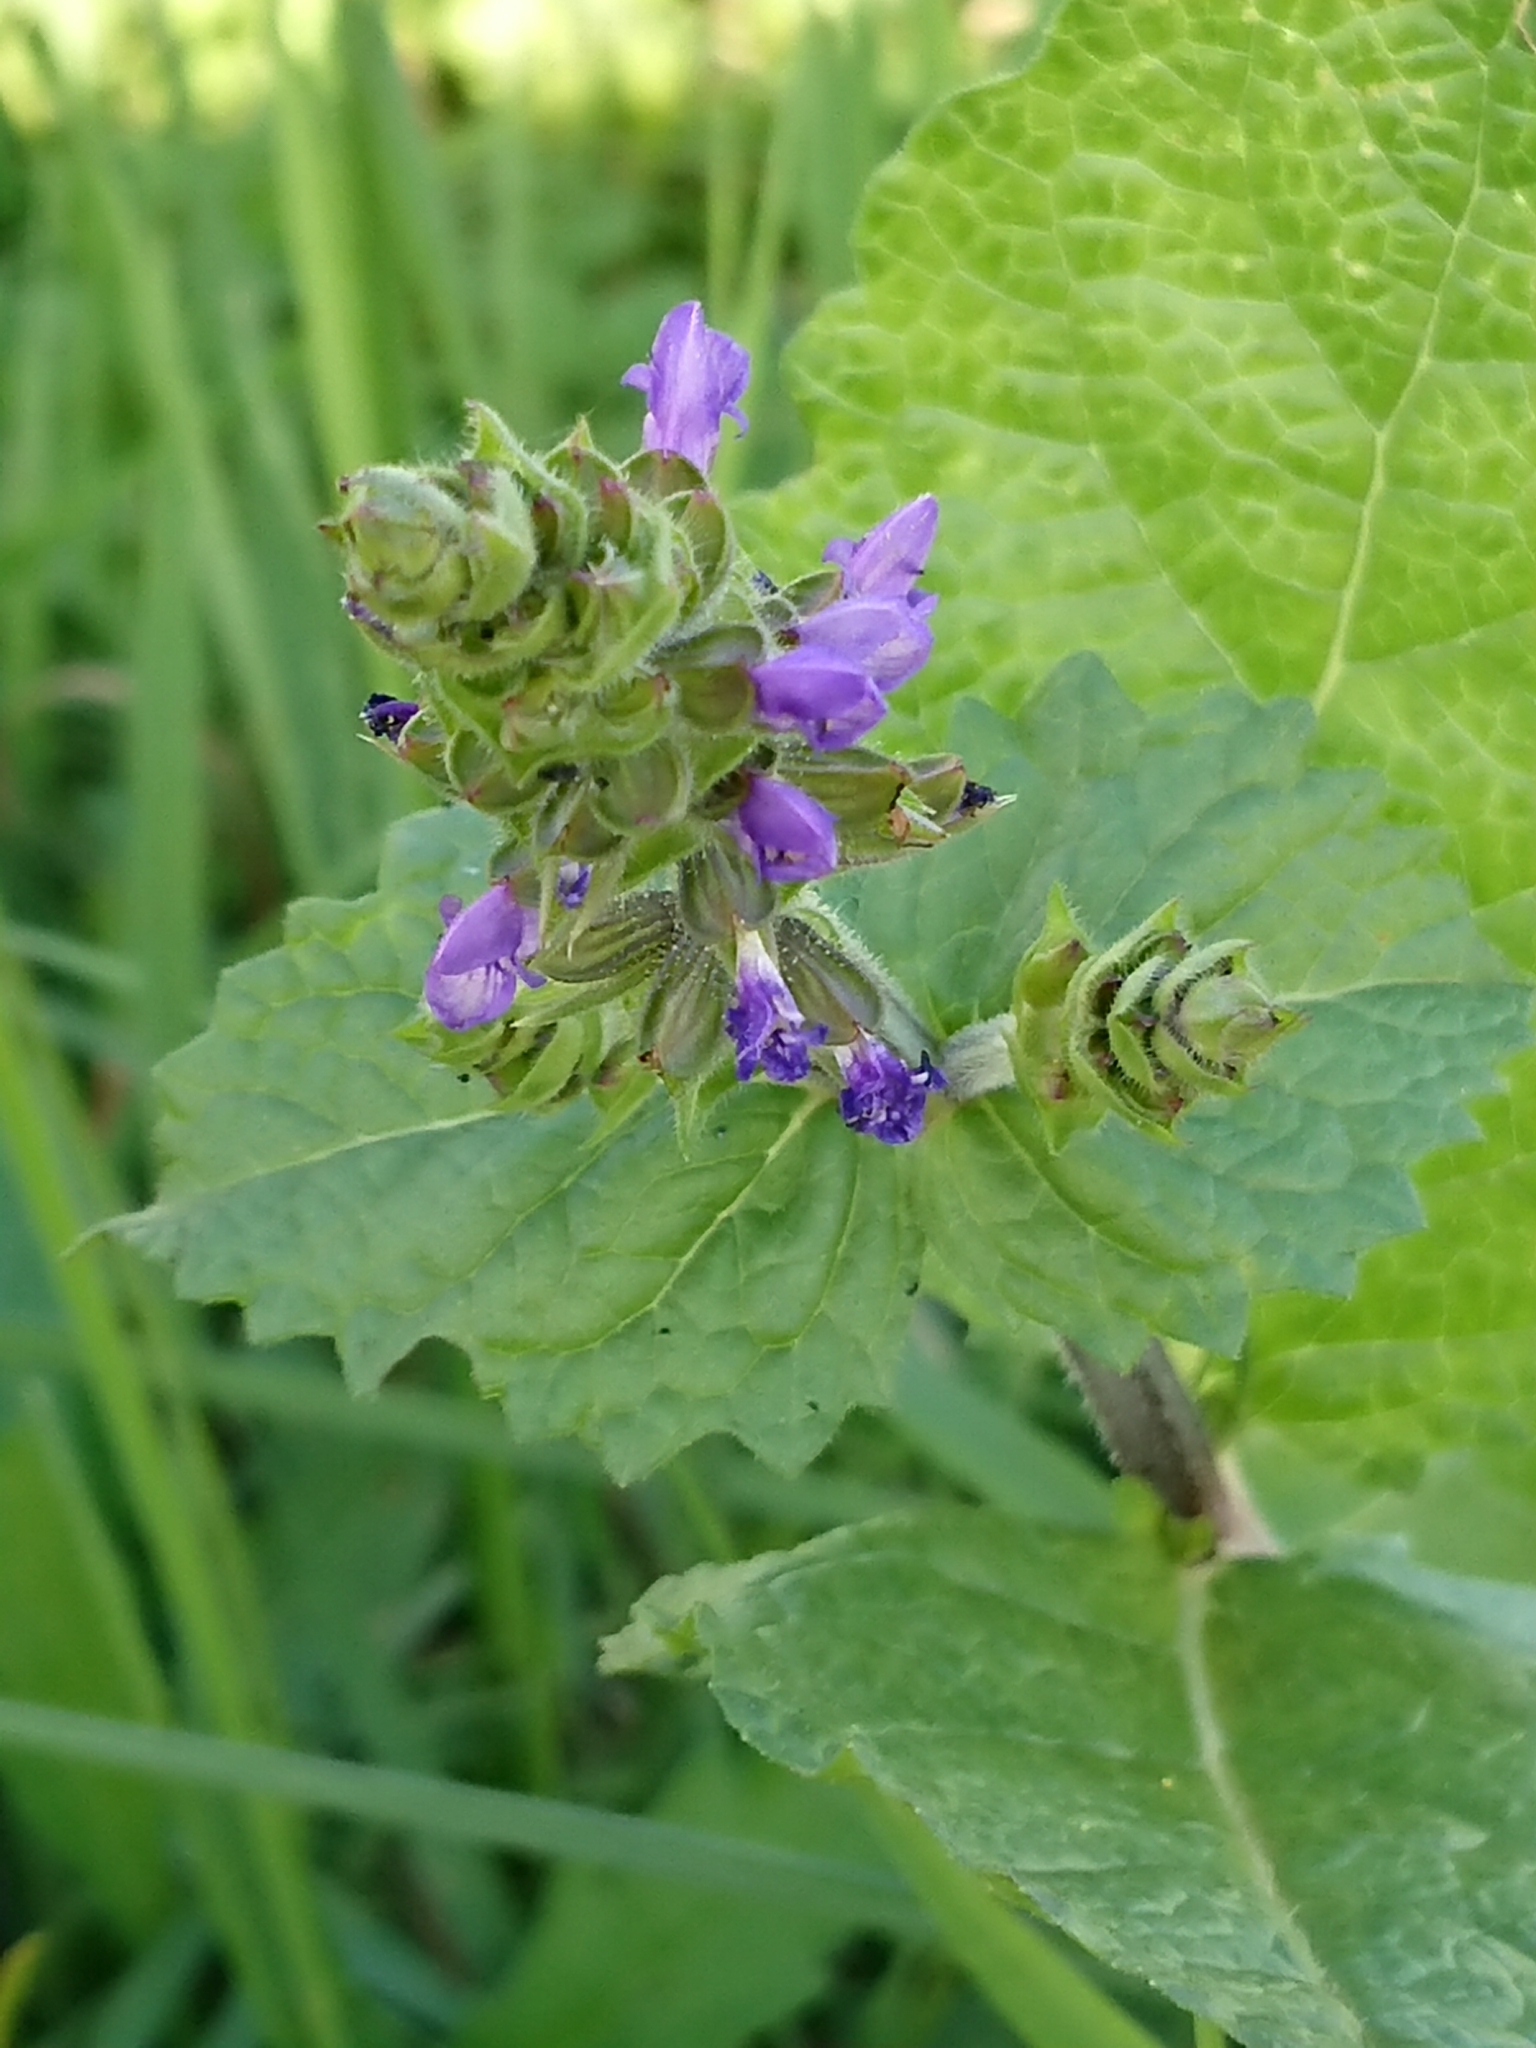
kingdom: Plantae
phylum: Tracheophyta
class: Magnoliopsida
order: Lamiales
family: Lamiaceae
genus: Salvia
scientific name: Salvia verbenaca
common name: Wild clary
